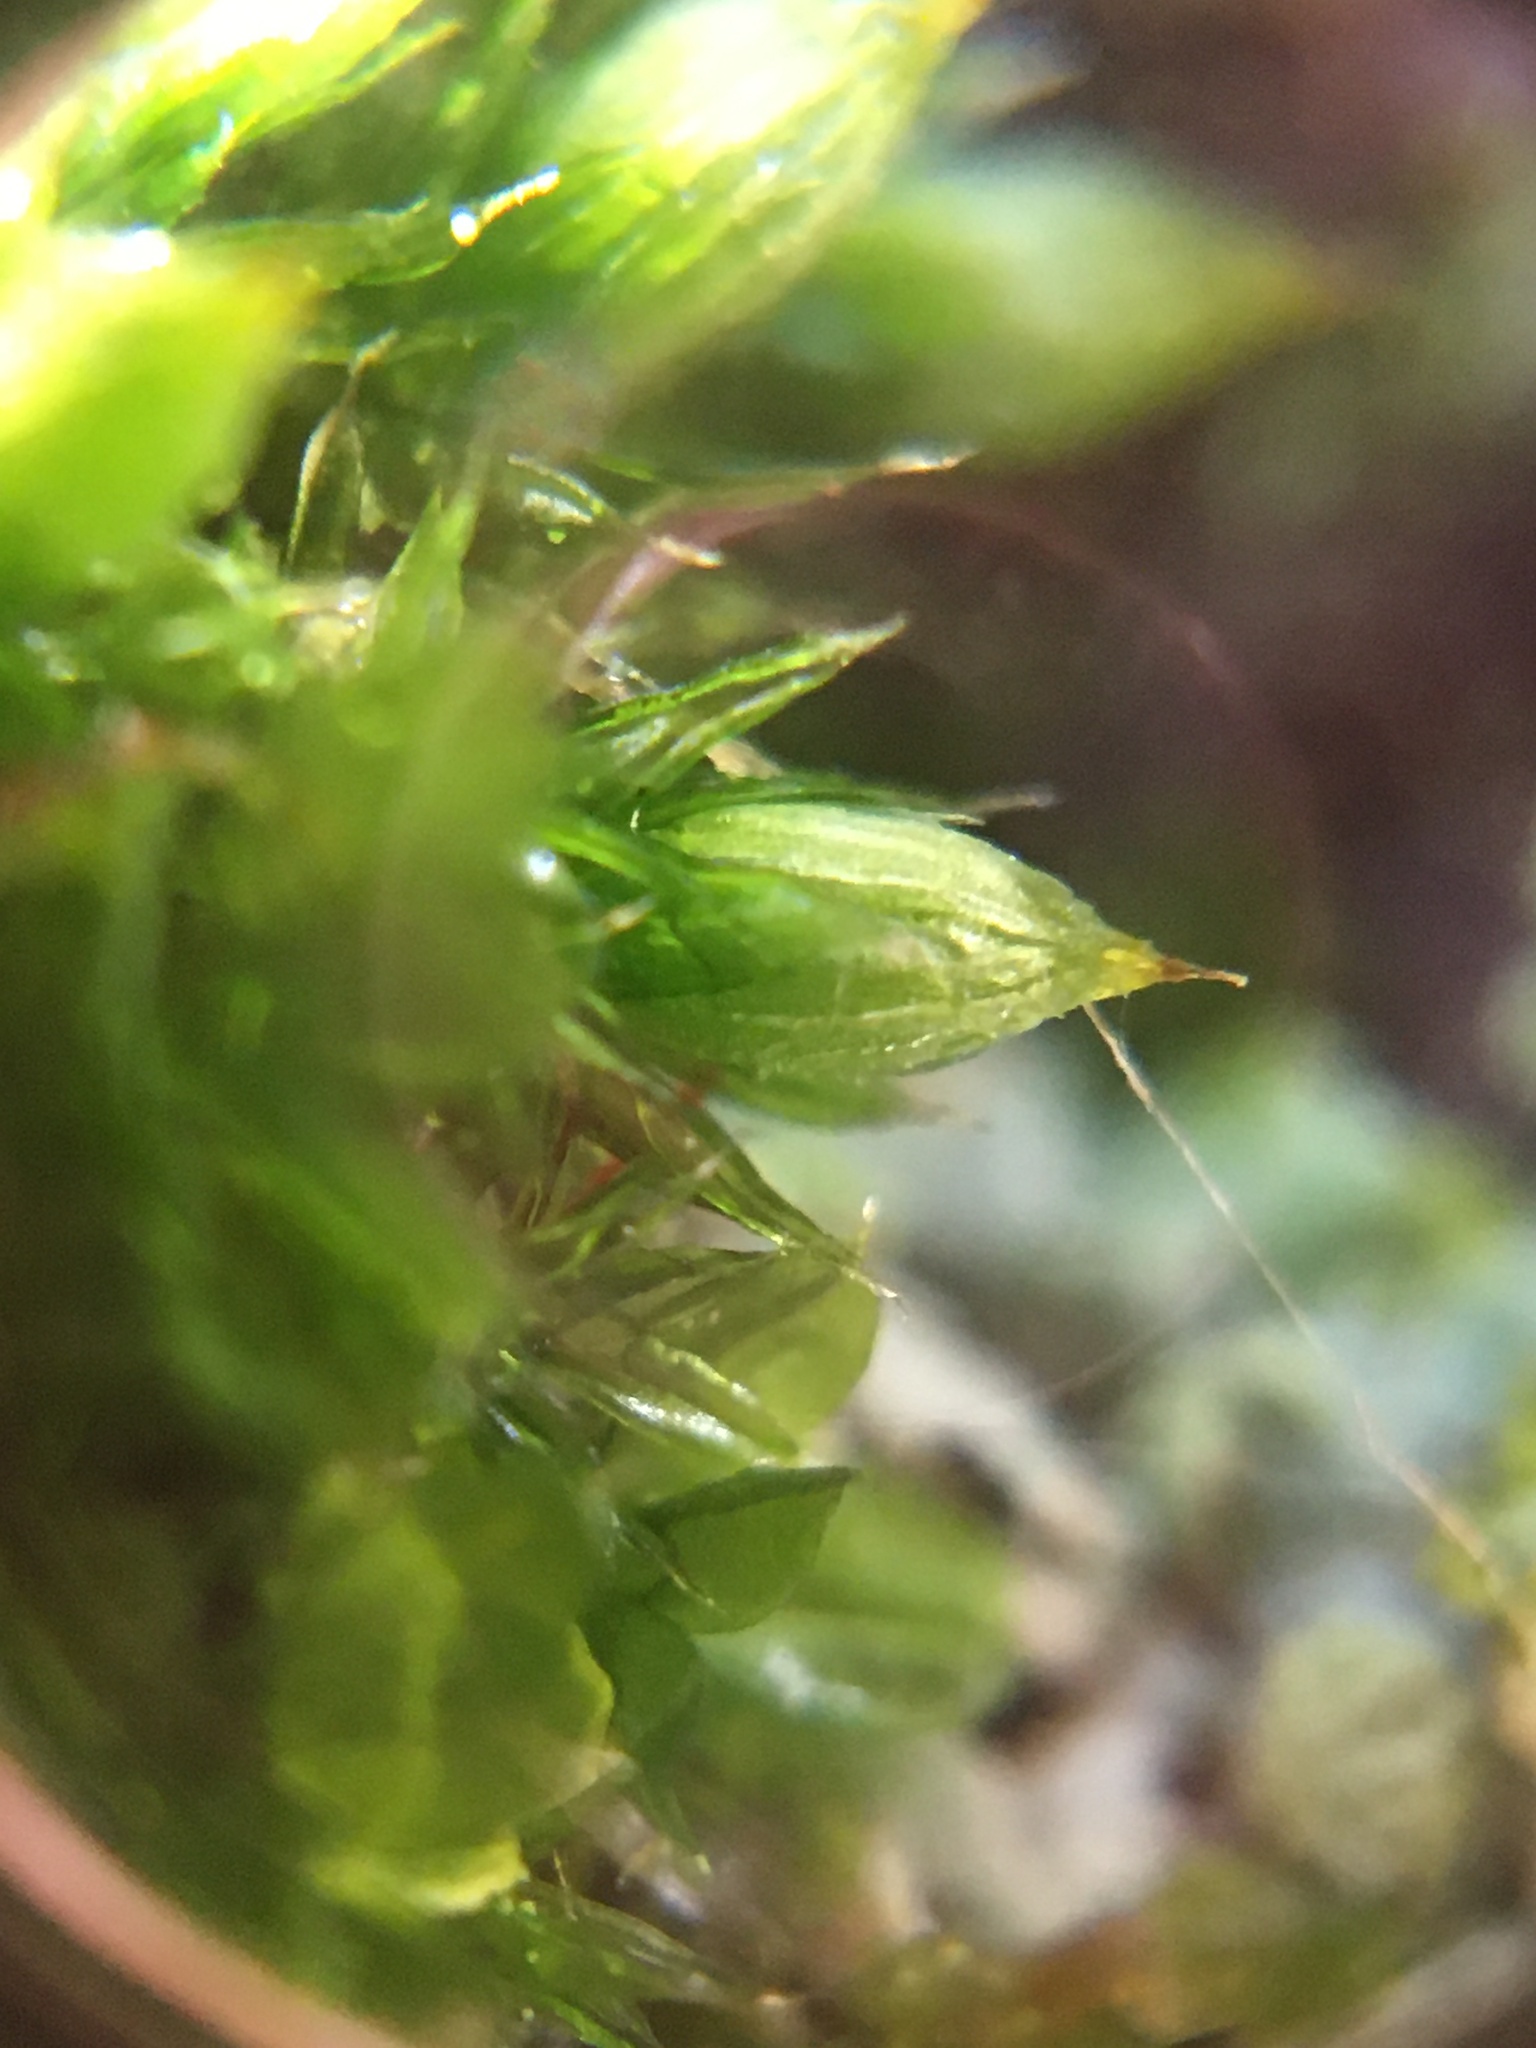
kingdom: Plantae
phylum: Bryophyta
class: Bryopsida
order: Orthotrichales
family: Orthotrichaceae
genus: Orthotrichum
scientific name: Orthotrichum diaphanum
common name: White-tipped bristle-moss
